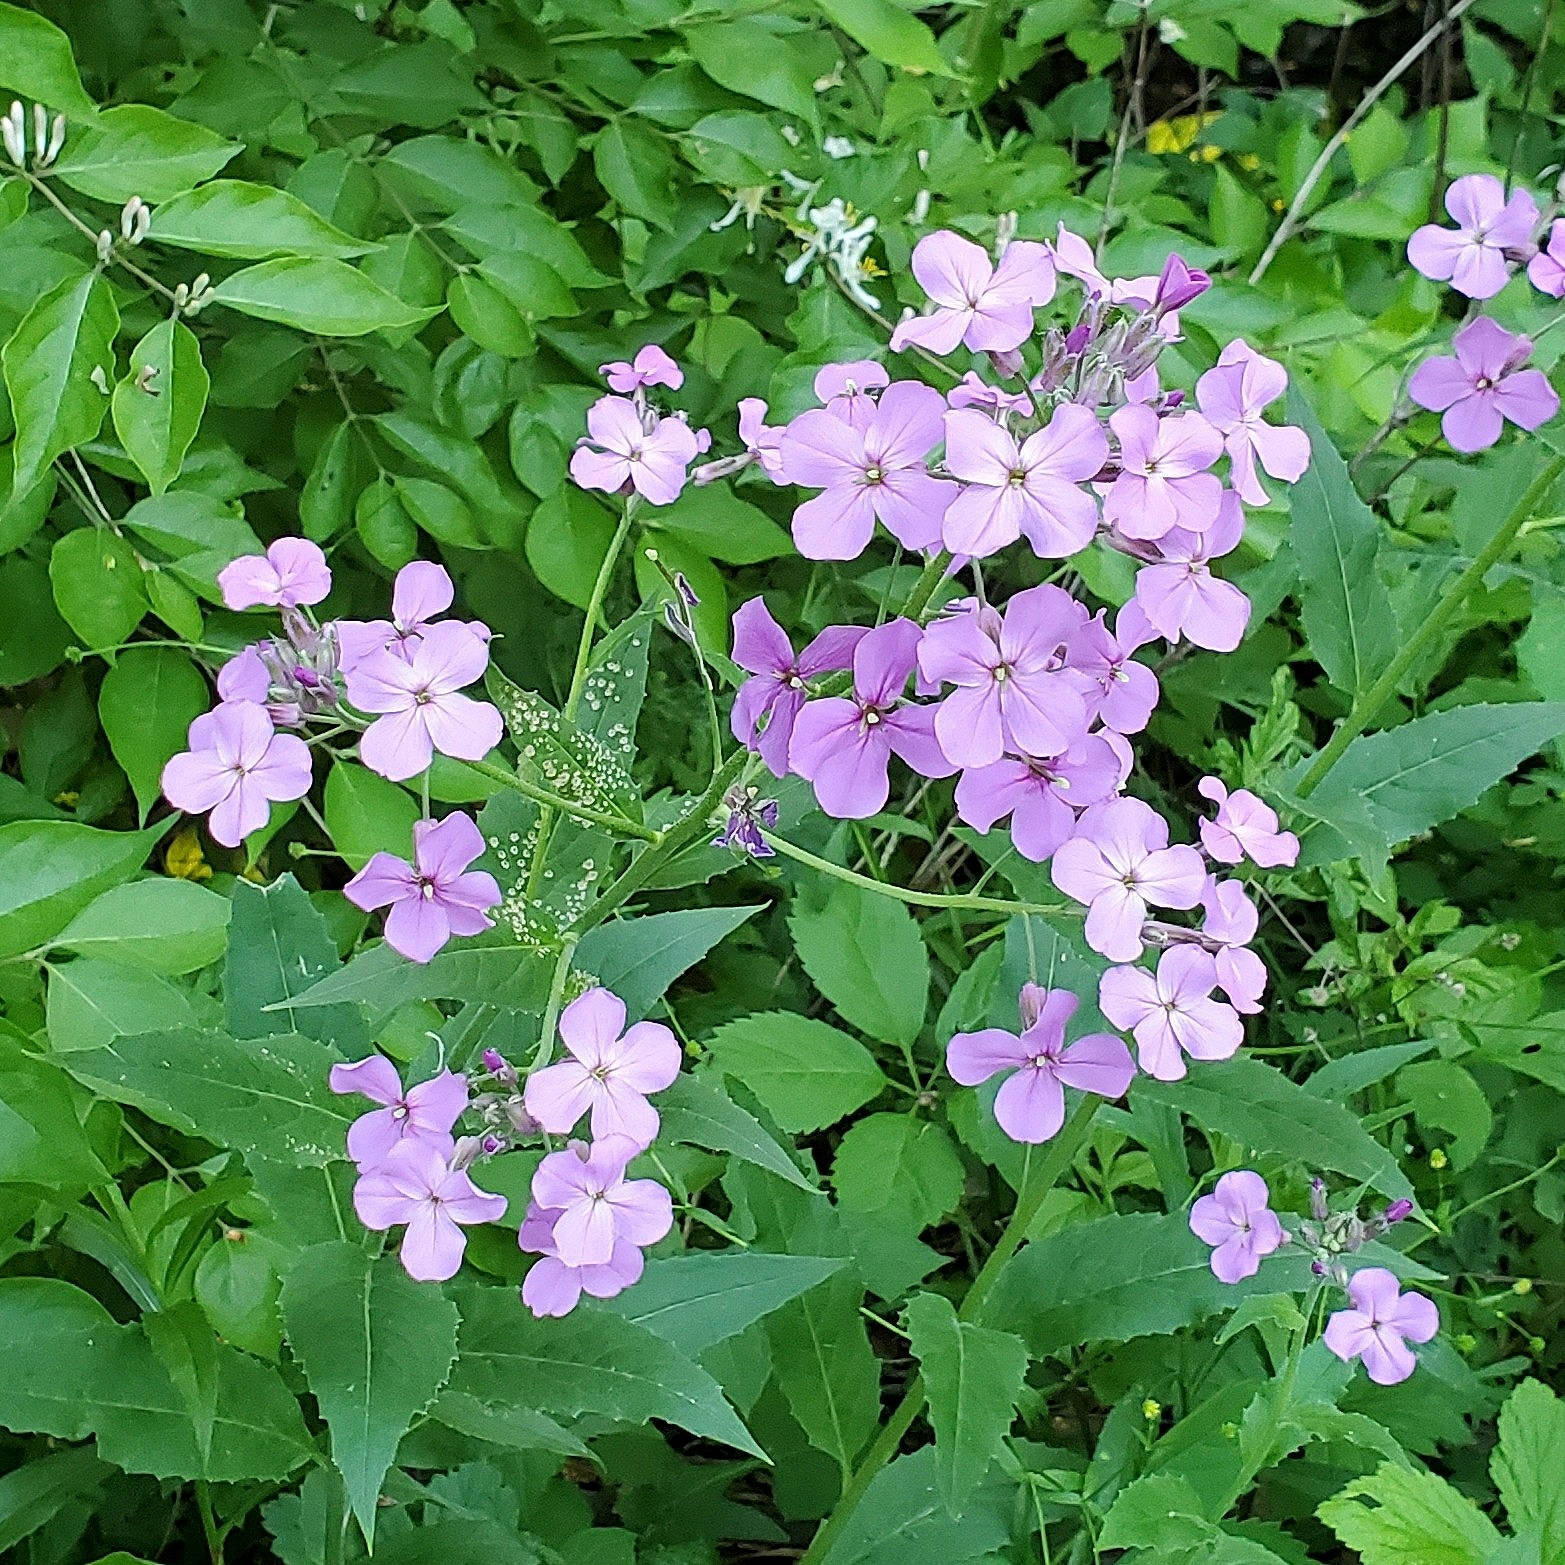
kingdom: Plantae
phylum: Tracheophyta
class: Magnoliopsida
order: Brassicales
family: Brassicaceae
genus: Hesperis
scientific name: Hesperis matronalis
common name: Dame's-violet
